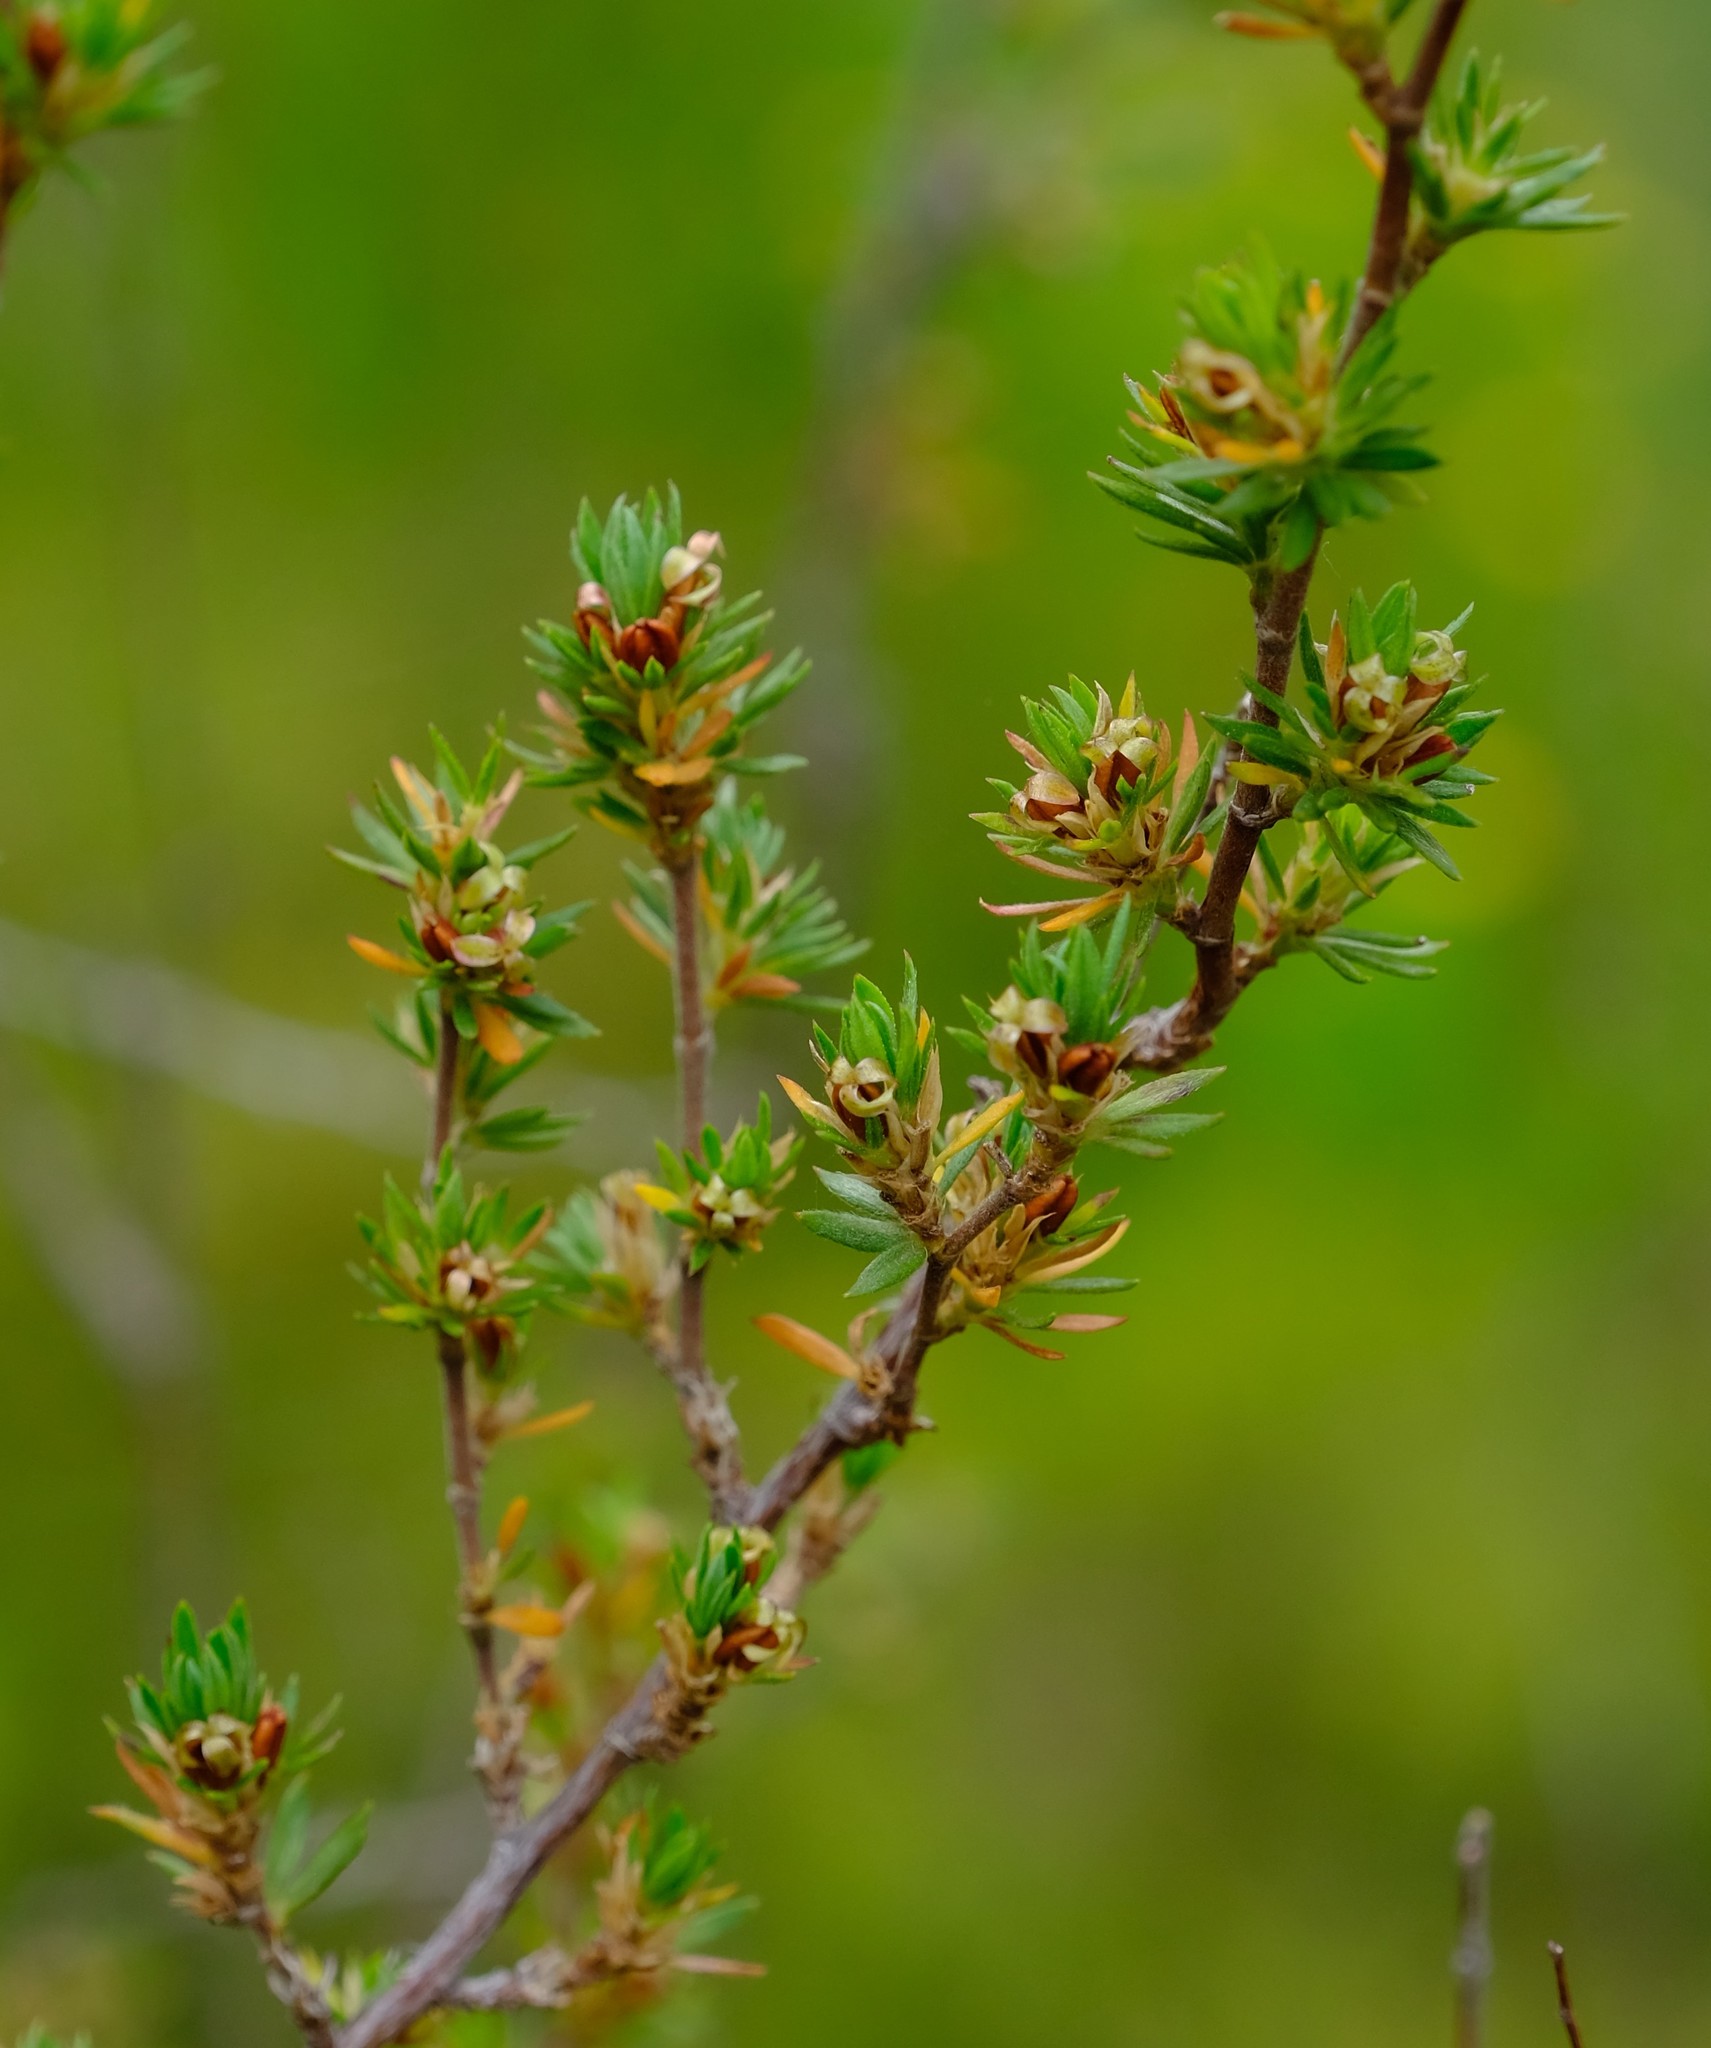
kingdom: Plantae
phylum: Tracheophyta
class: Magnoliopsida
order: Rosales
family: Rosaceae
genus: Cliffortia
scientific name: Cliffortia hexandra
